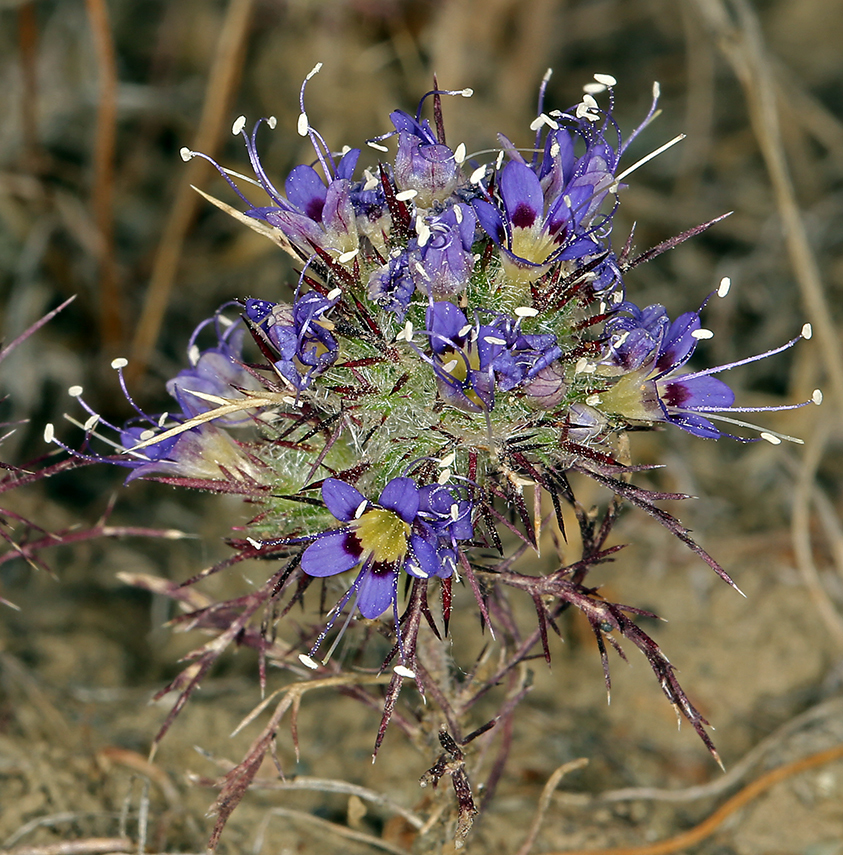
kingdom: Plantae
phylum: Tracheophyta
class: Magnoliopsida
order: Ericales
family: Polemoniaceae
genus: Navarretia
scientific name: Navarretia jepsonii
